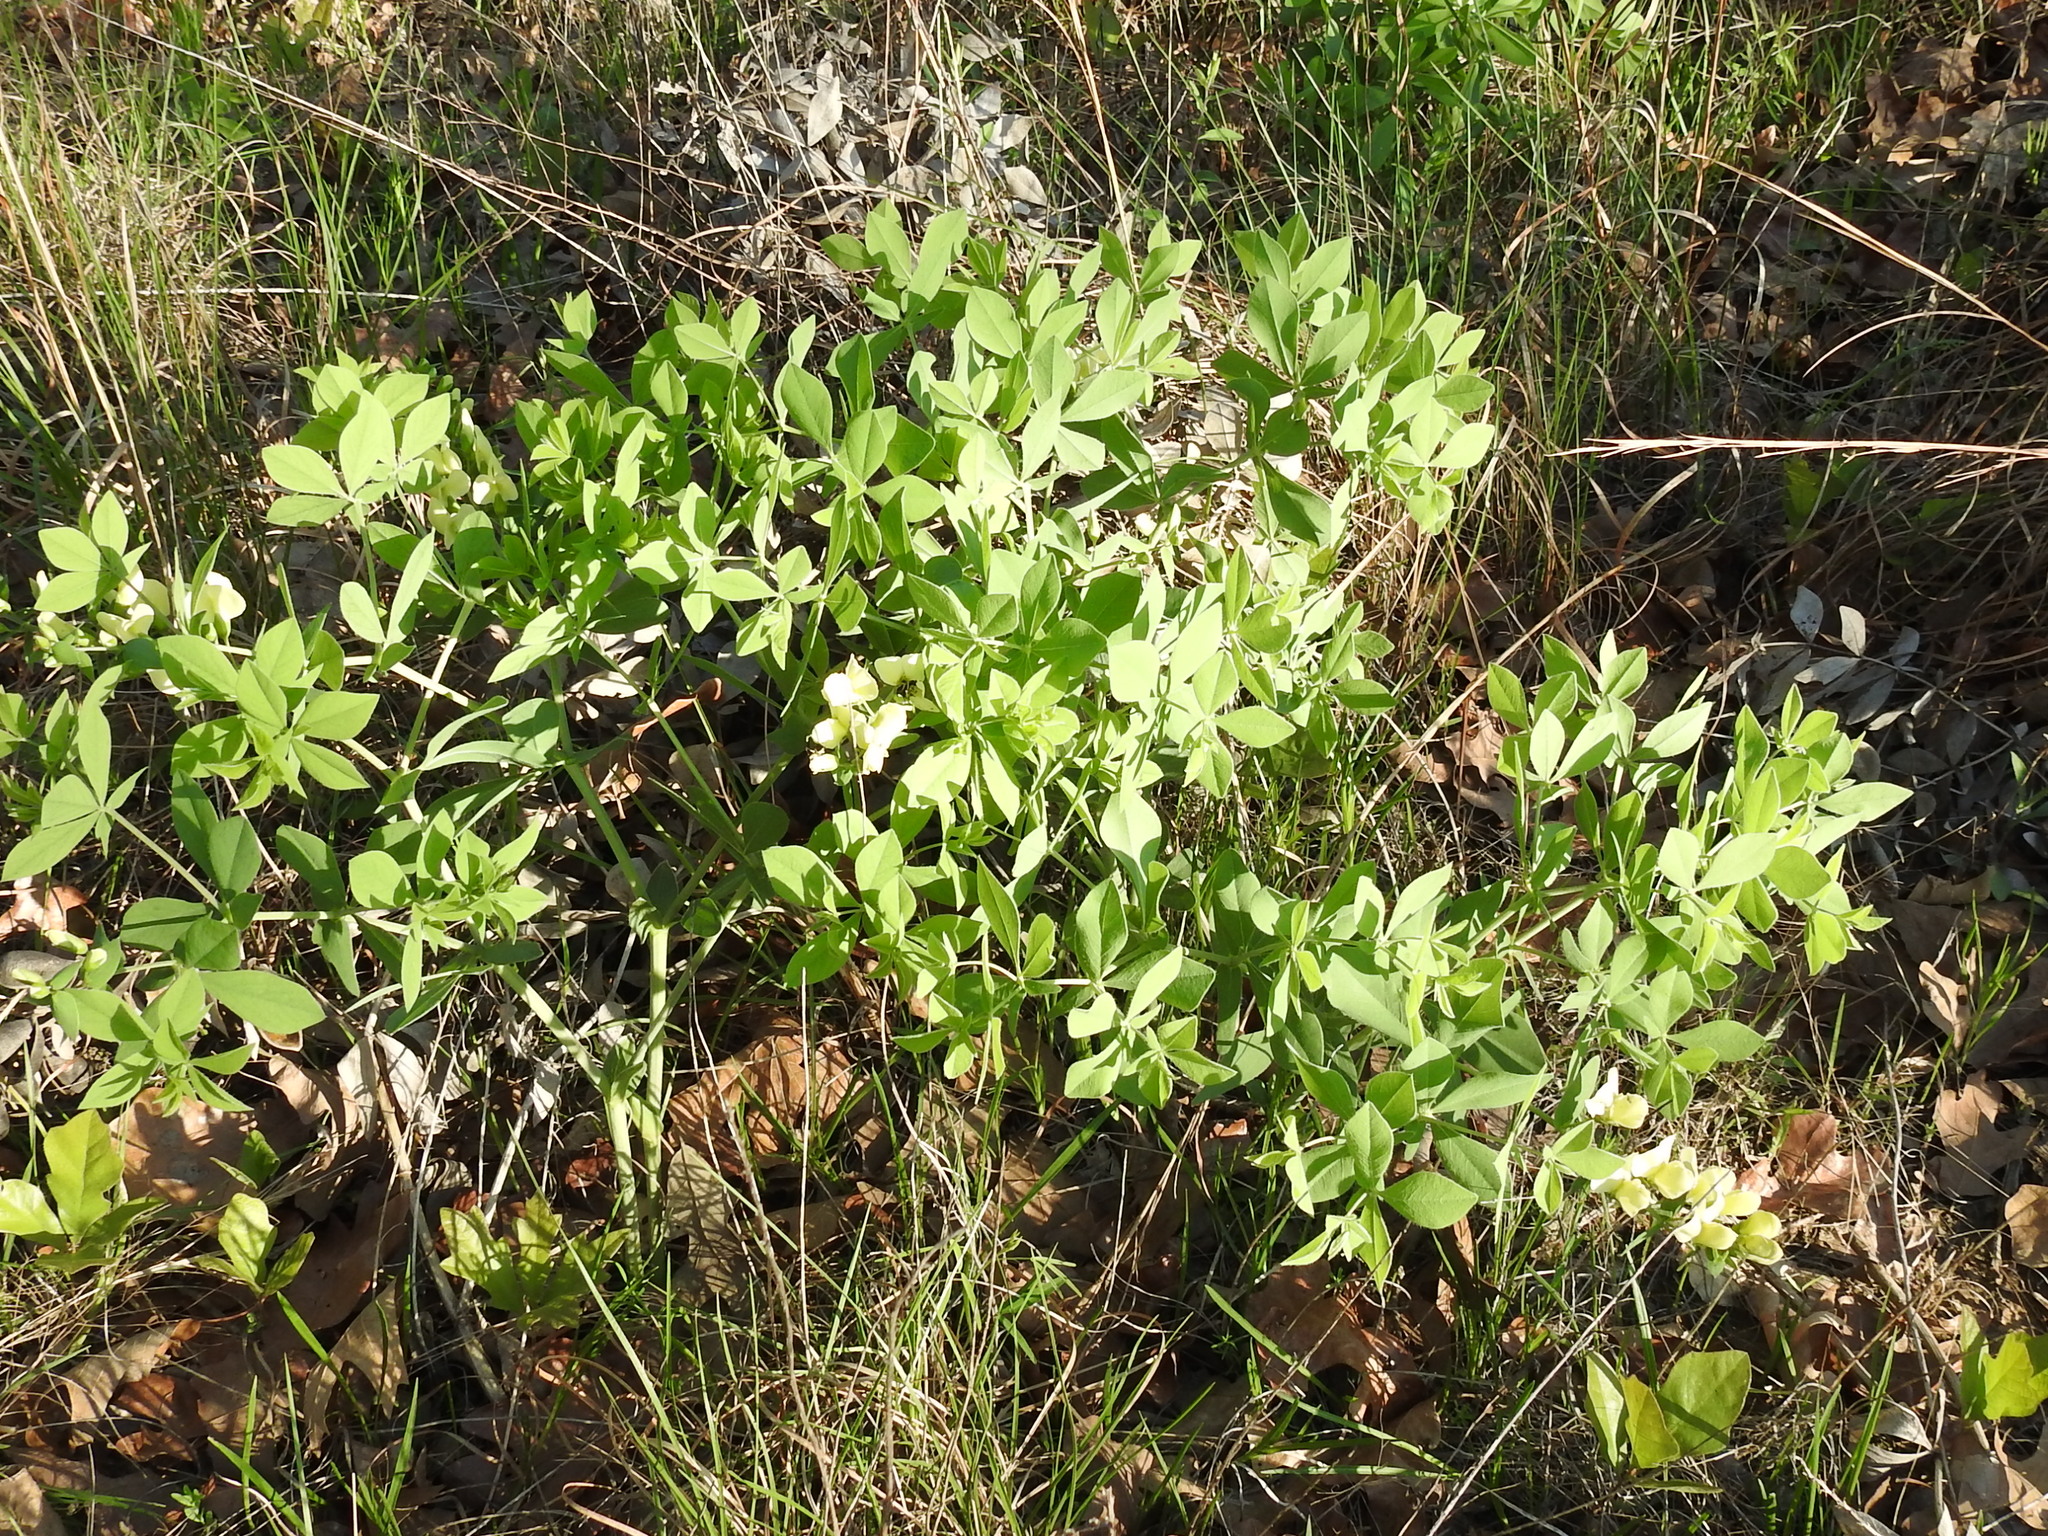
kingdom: Plantae
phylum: Tracheophyta
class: Magnoliopsida
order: Fabales
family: Fabaceae
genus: Baptisia
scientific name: Baptisia bracteata
